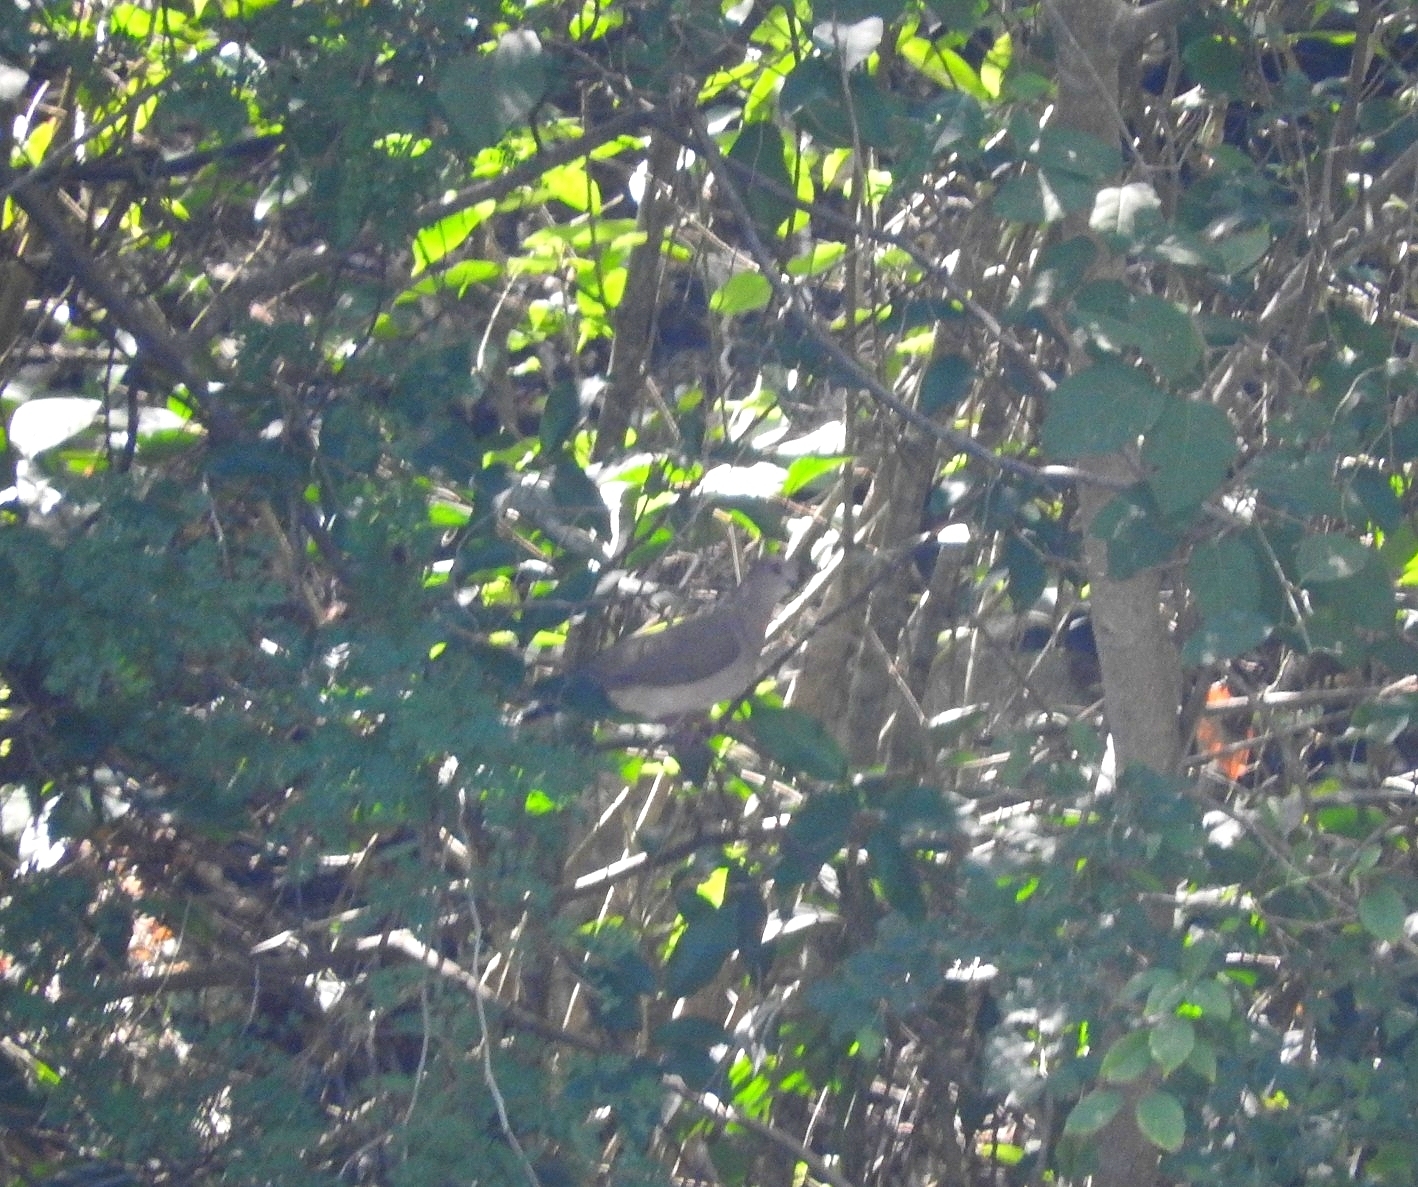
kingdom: Animalia
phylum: Chordata
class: Aves
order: Columbiformes
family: Columbidae
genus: Leptotila
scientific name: Leptotila verreauxi
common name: White-tipped dove
